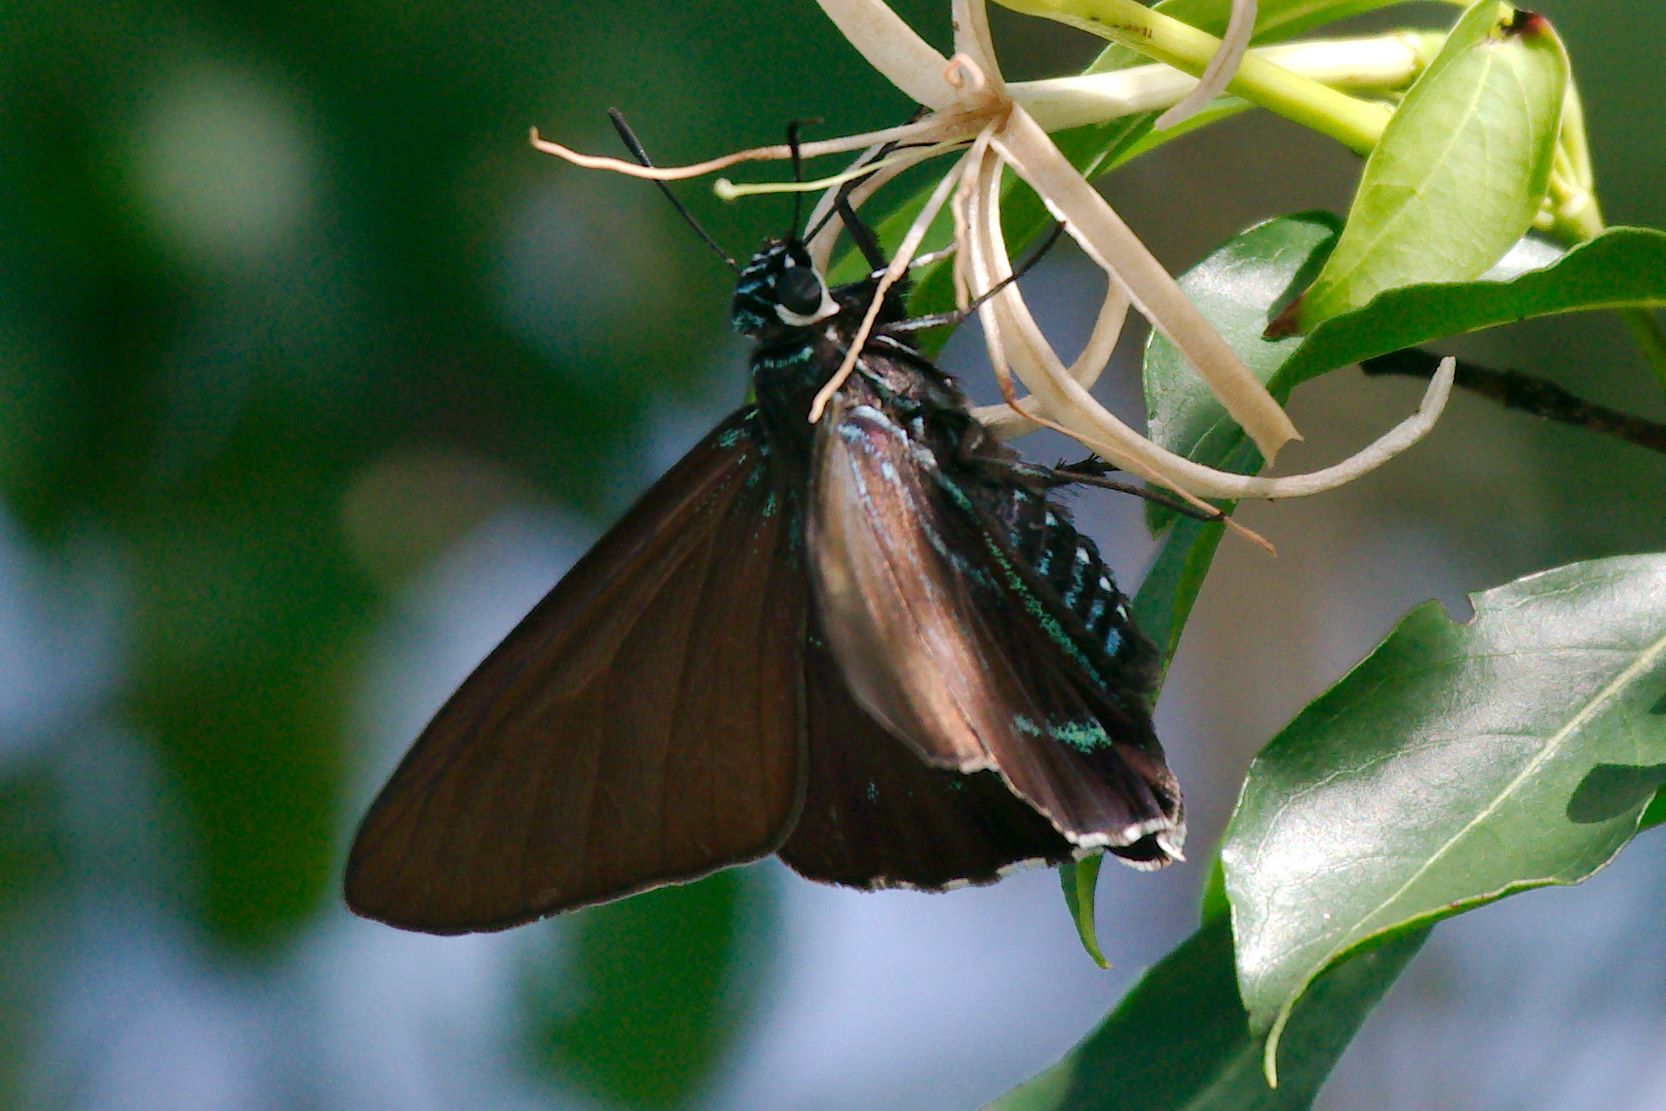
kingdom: Animalia
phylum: Arthropoda
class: Insecta
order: Lepidoptera
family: Hesperiidae
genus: Phocides
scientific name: Phocides pigmalion
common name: Mangrove skipper
